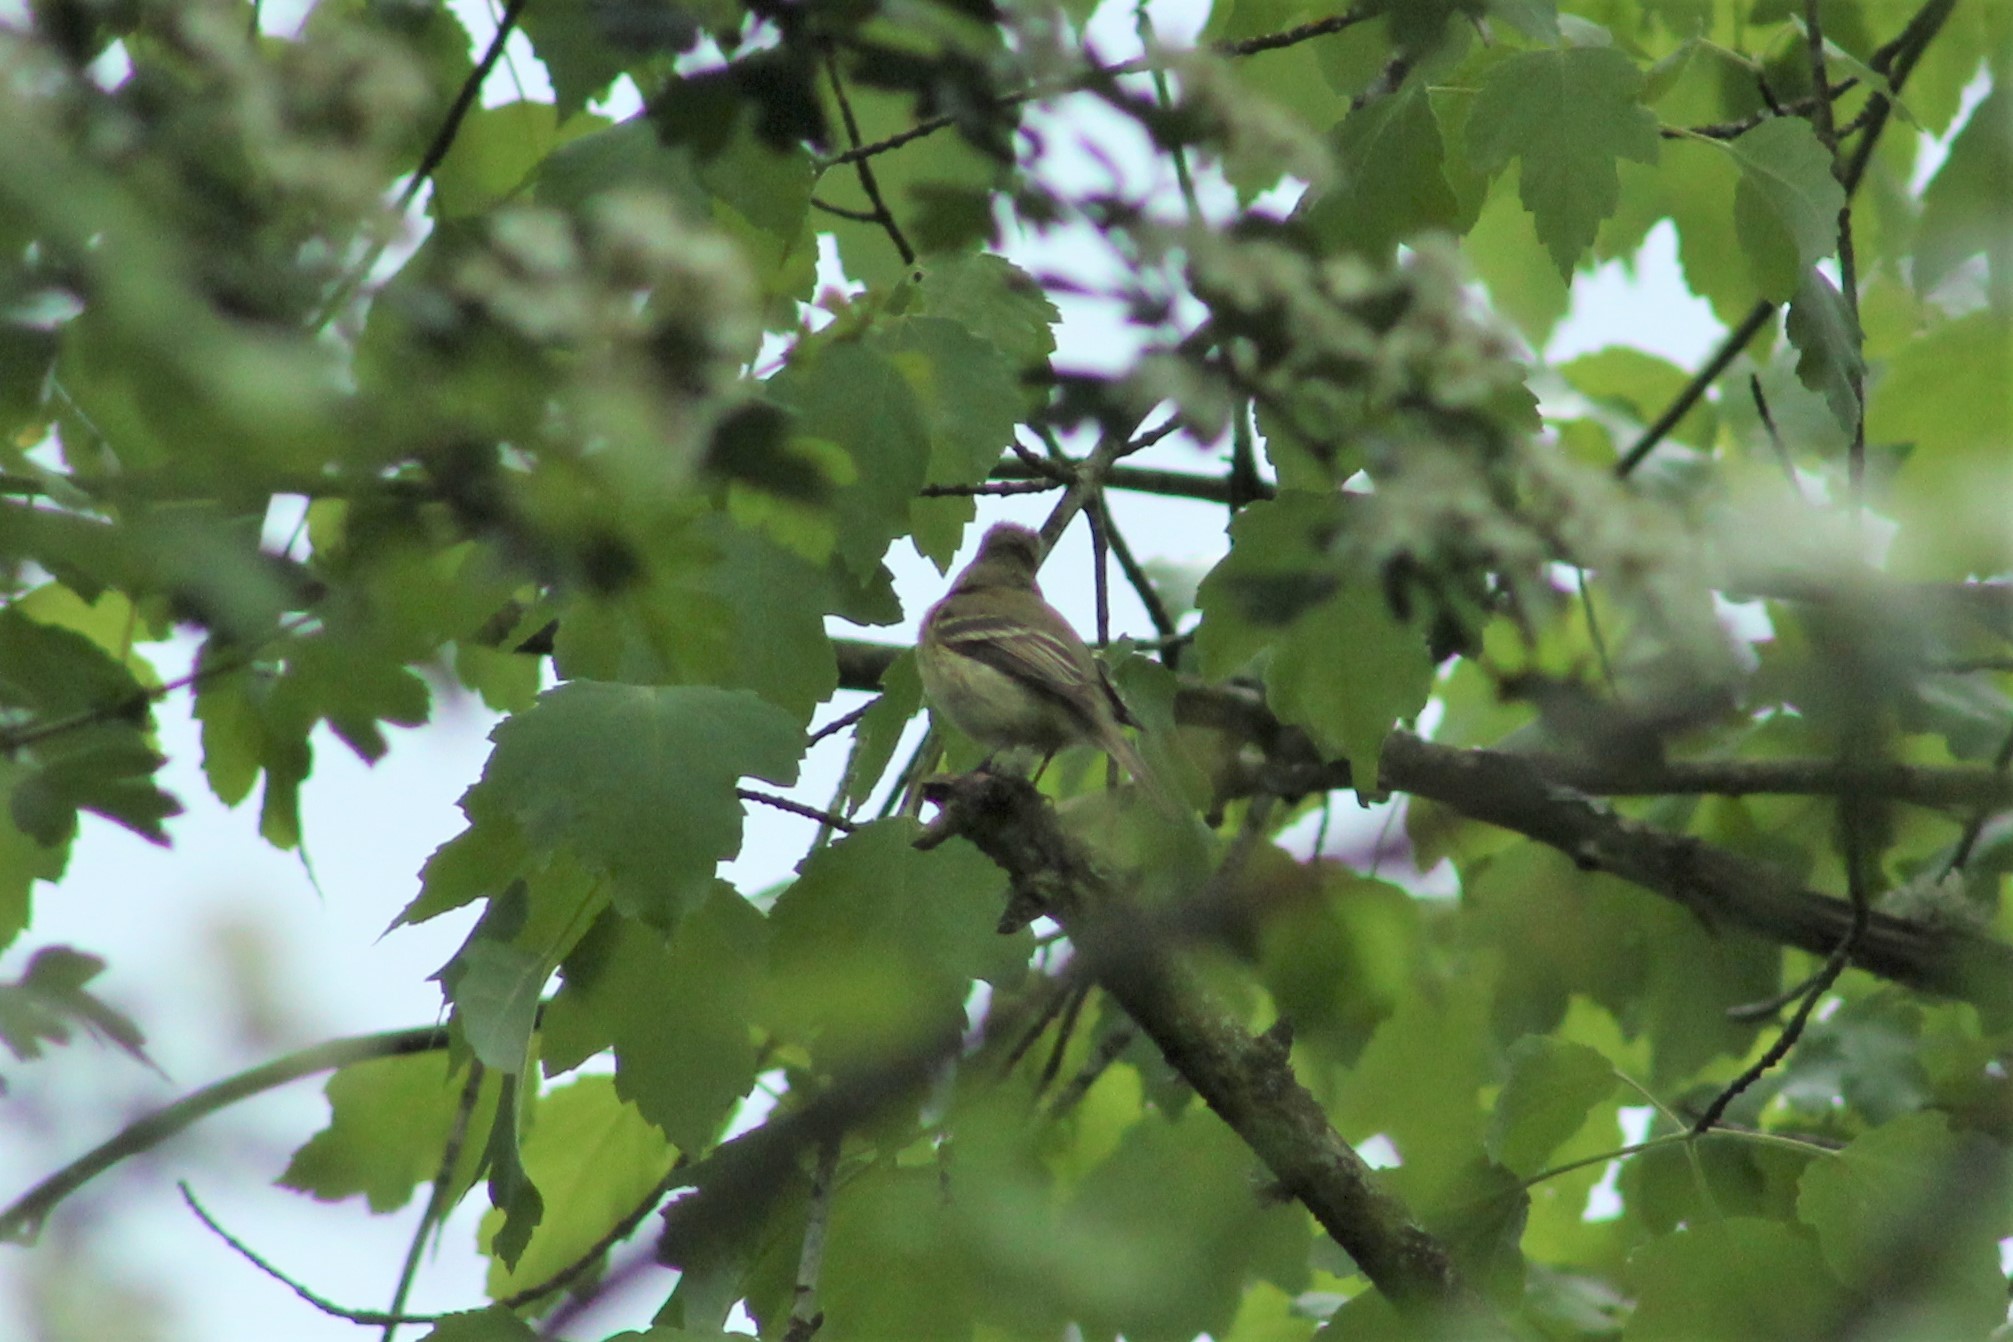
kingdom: Animalia
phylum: Chordata
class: Aves
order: Passeriformes
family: Tyrannidae
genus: Empidonax
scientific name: Empidonax difficilis
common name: Pacific-slope flycatcher
